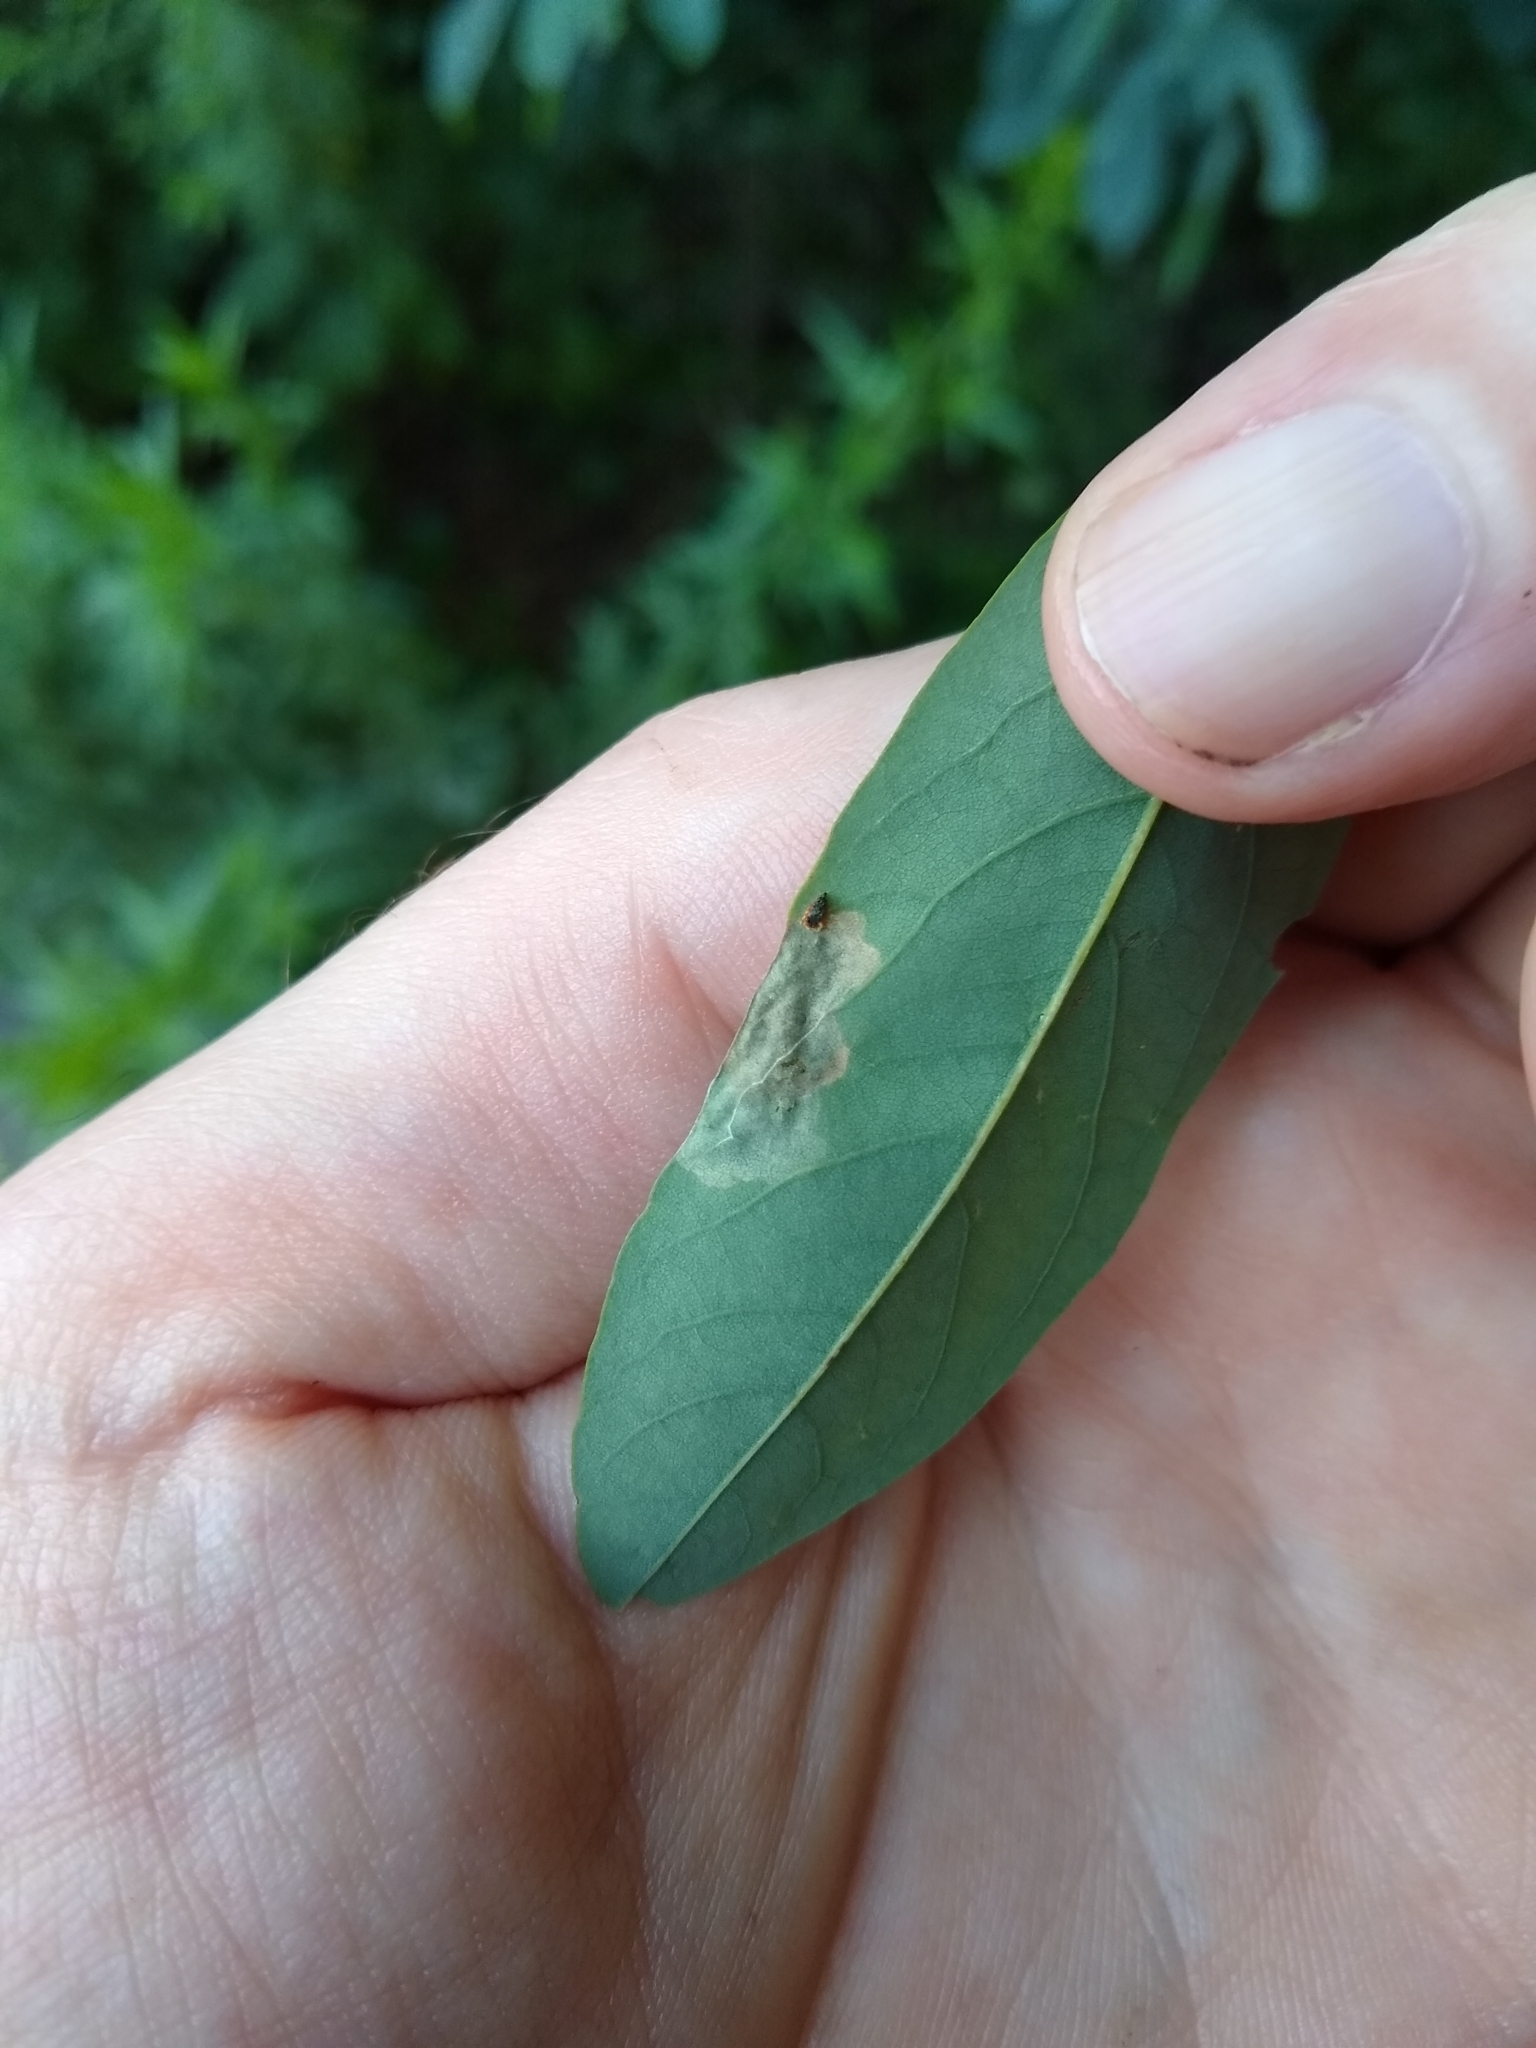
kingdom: Animalia
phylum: Arthropoda
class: Insecta
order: Coleoptera
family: Chrysomelidae
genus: Odontota
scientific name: Odontota dorsalis
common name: Locust leaf-miner beetle
